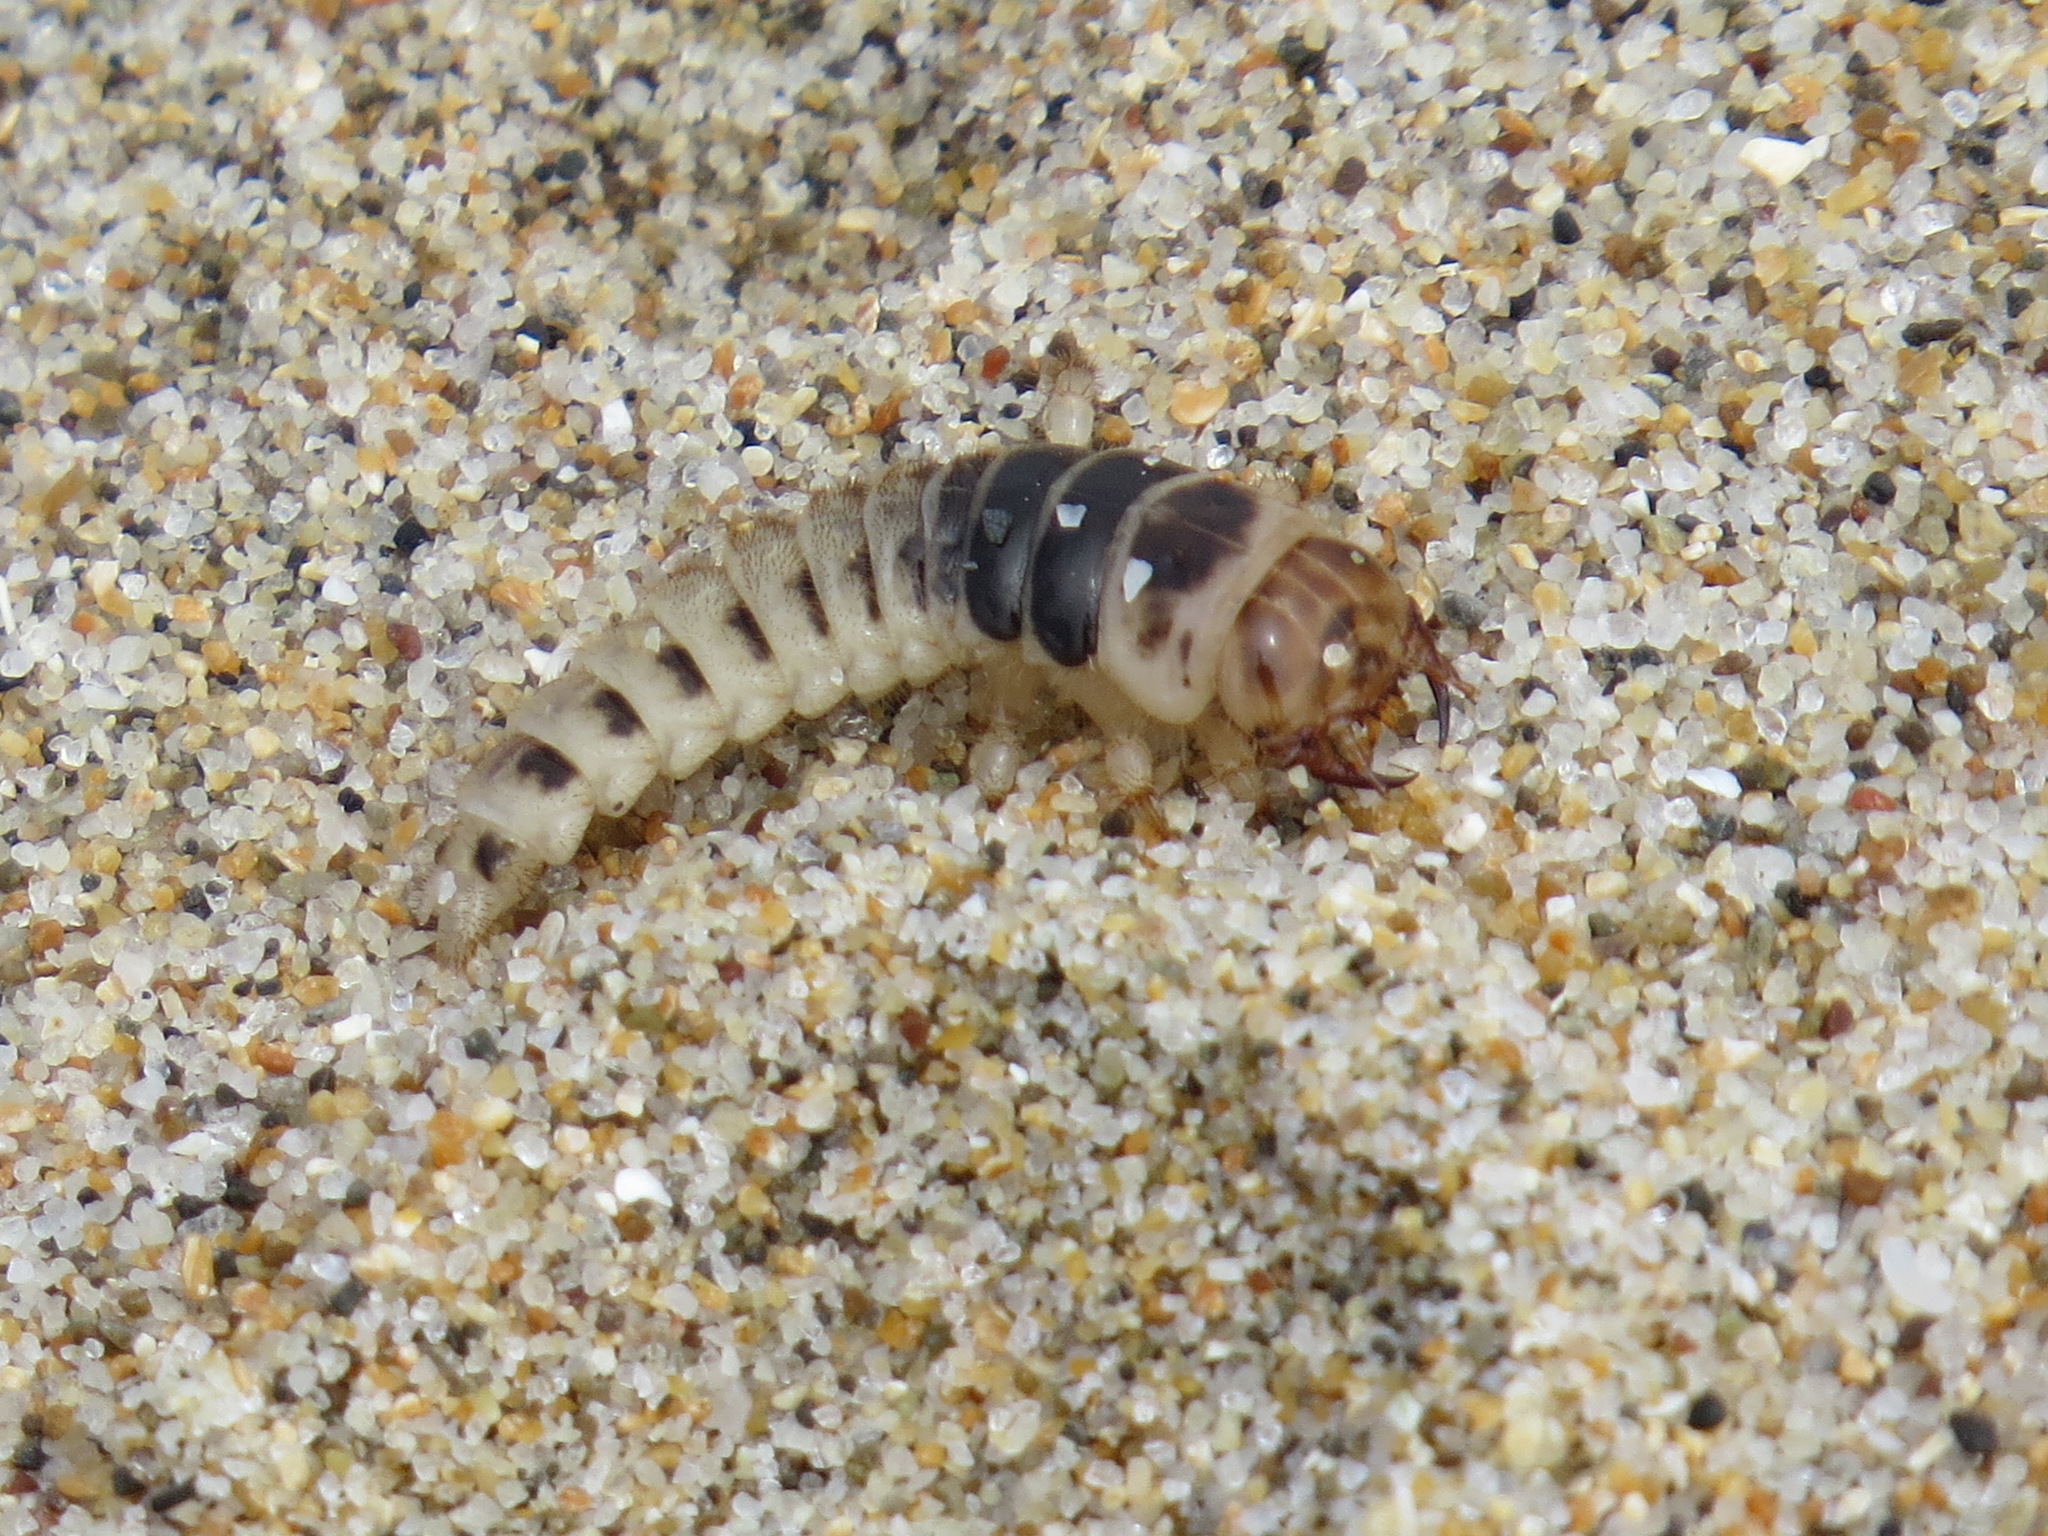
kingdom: Animalia
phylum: Arthropoda
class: Insecta
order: Coleoptera
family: Staphylinidae
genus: Thinopinus
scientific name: Thinopinus pictus
